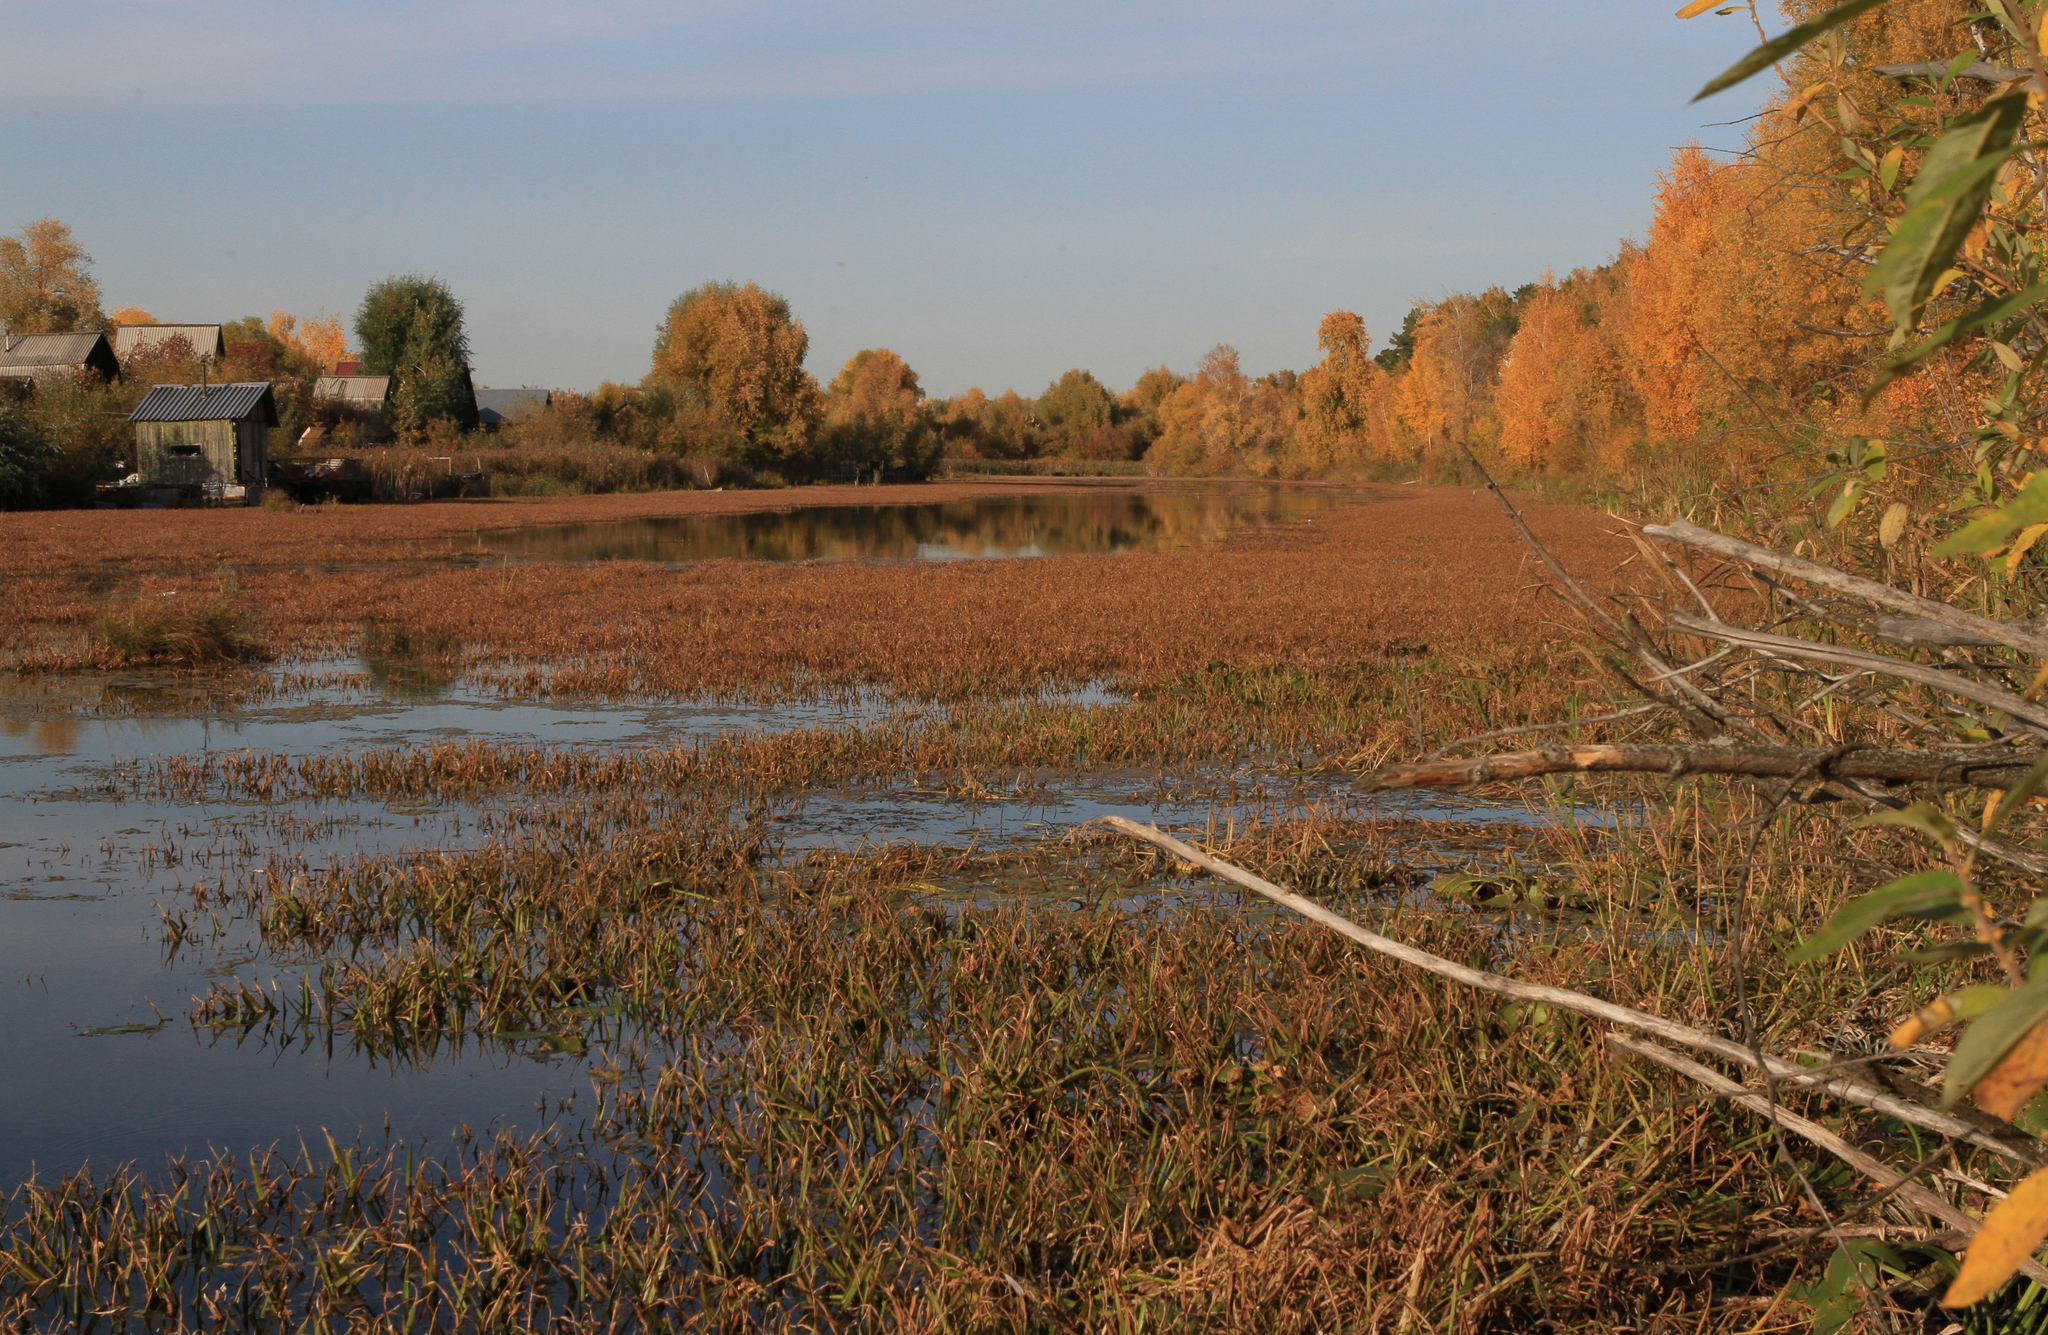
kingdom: Plantae
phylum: Tracheophyta
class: Liliopsida
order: Alismatales
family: Hydrocharitaceae
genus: Stratiotes
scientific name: Stratiotes aloides
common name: Water-soldier
